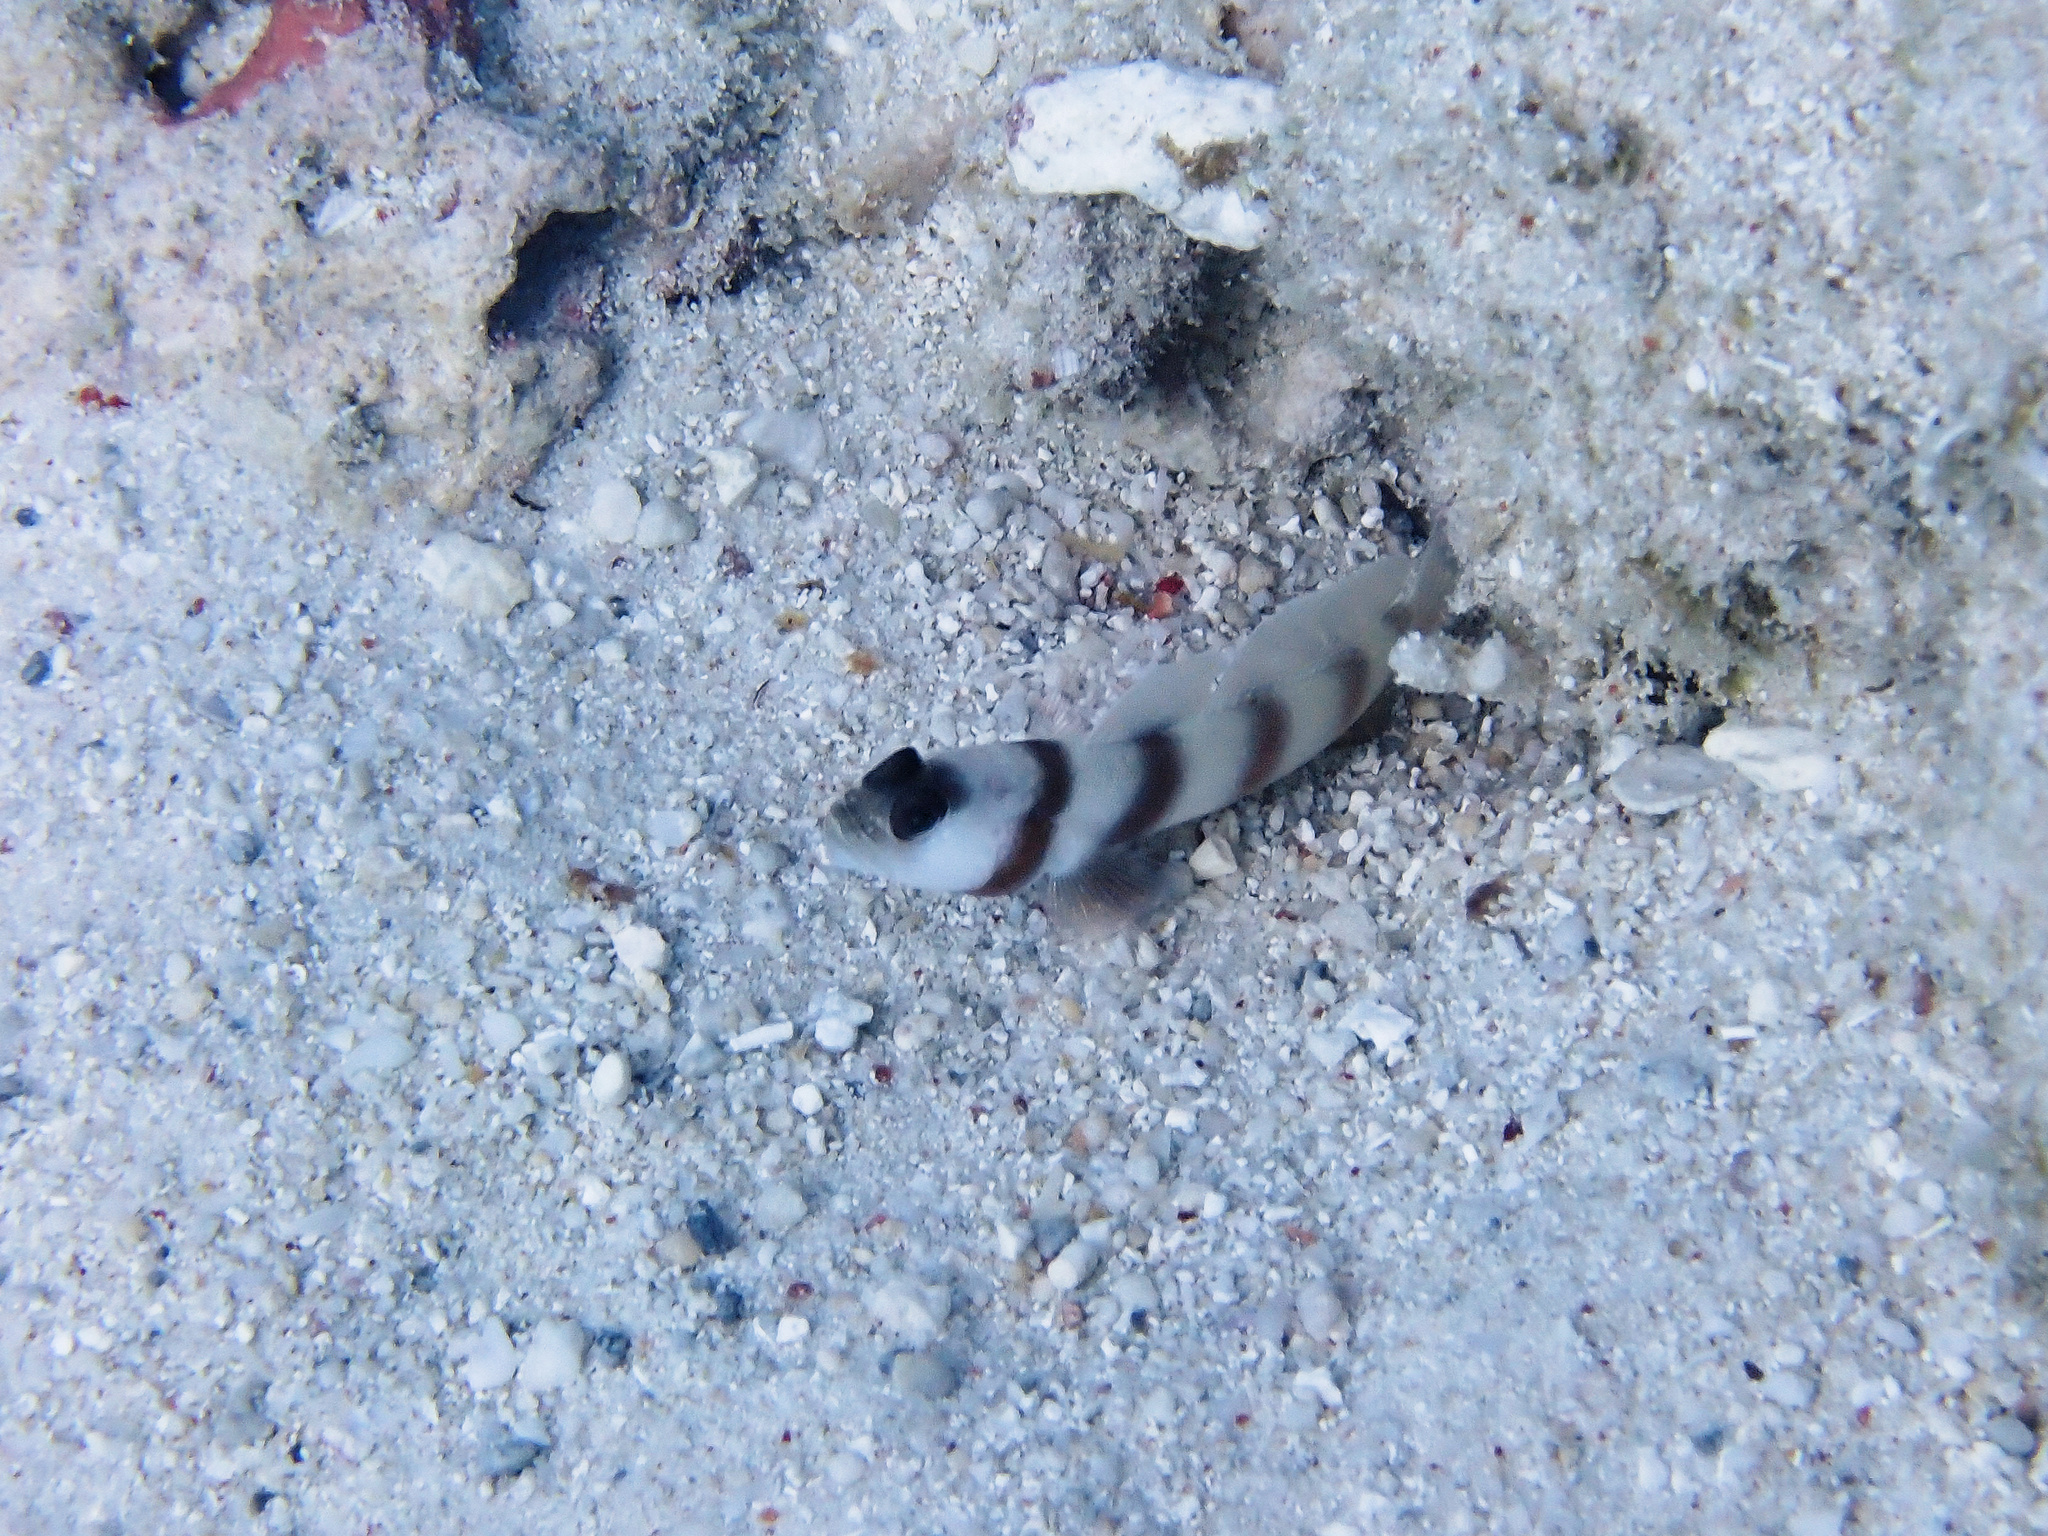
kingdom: Animalia
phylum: Chordata
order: Perciformes
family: Gobiidae
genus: Amblyeleotris
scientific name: Amblyeleotris steinitzi
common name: Steinitz' prawn-goby
